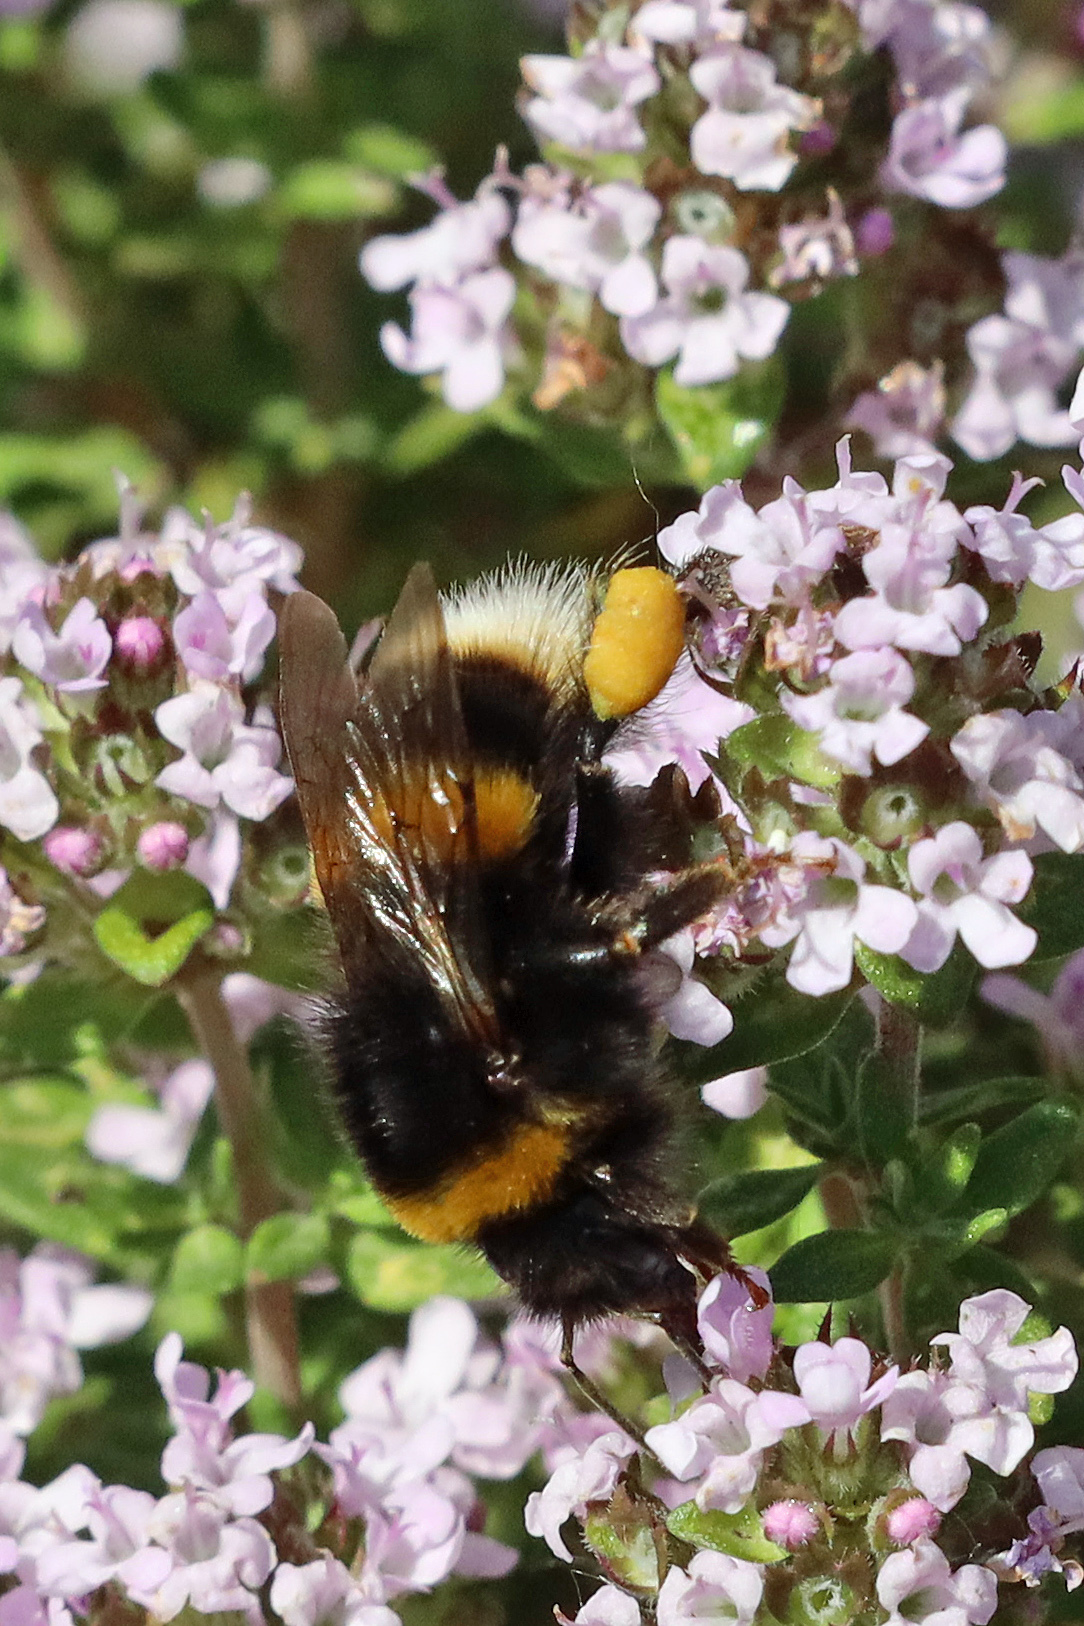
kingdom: Animalia
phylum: Arthropoda
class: Insecta
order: Hymenoptera
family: Apidae
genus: Bombus
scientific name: Bombus terrestris
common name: Buff-tailed bumblebee
